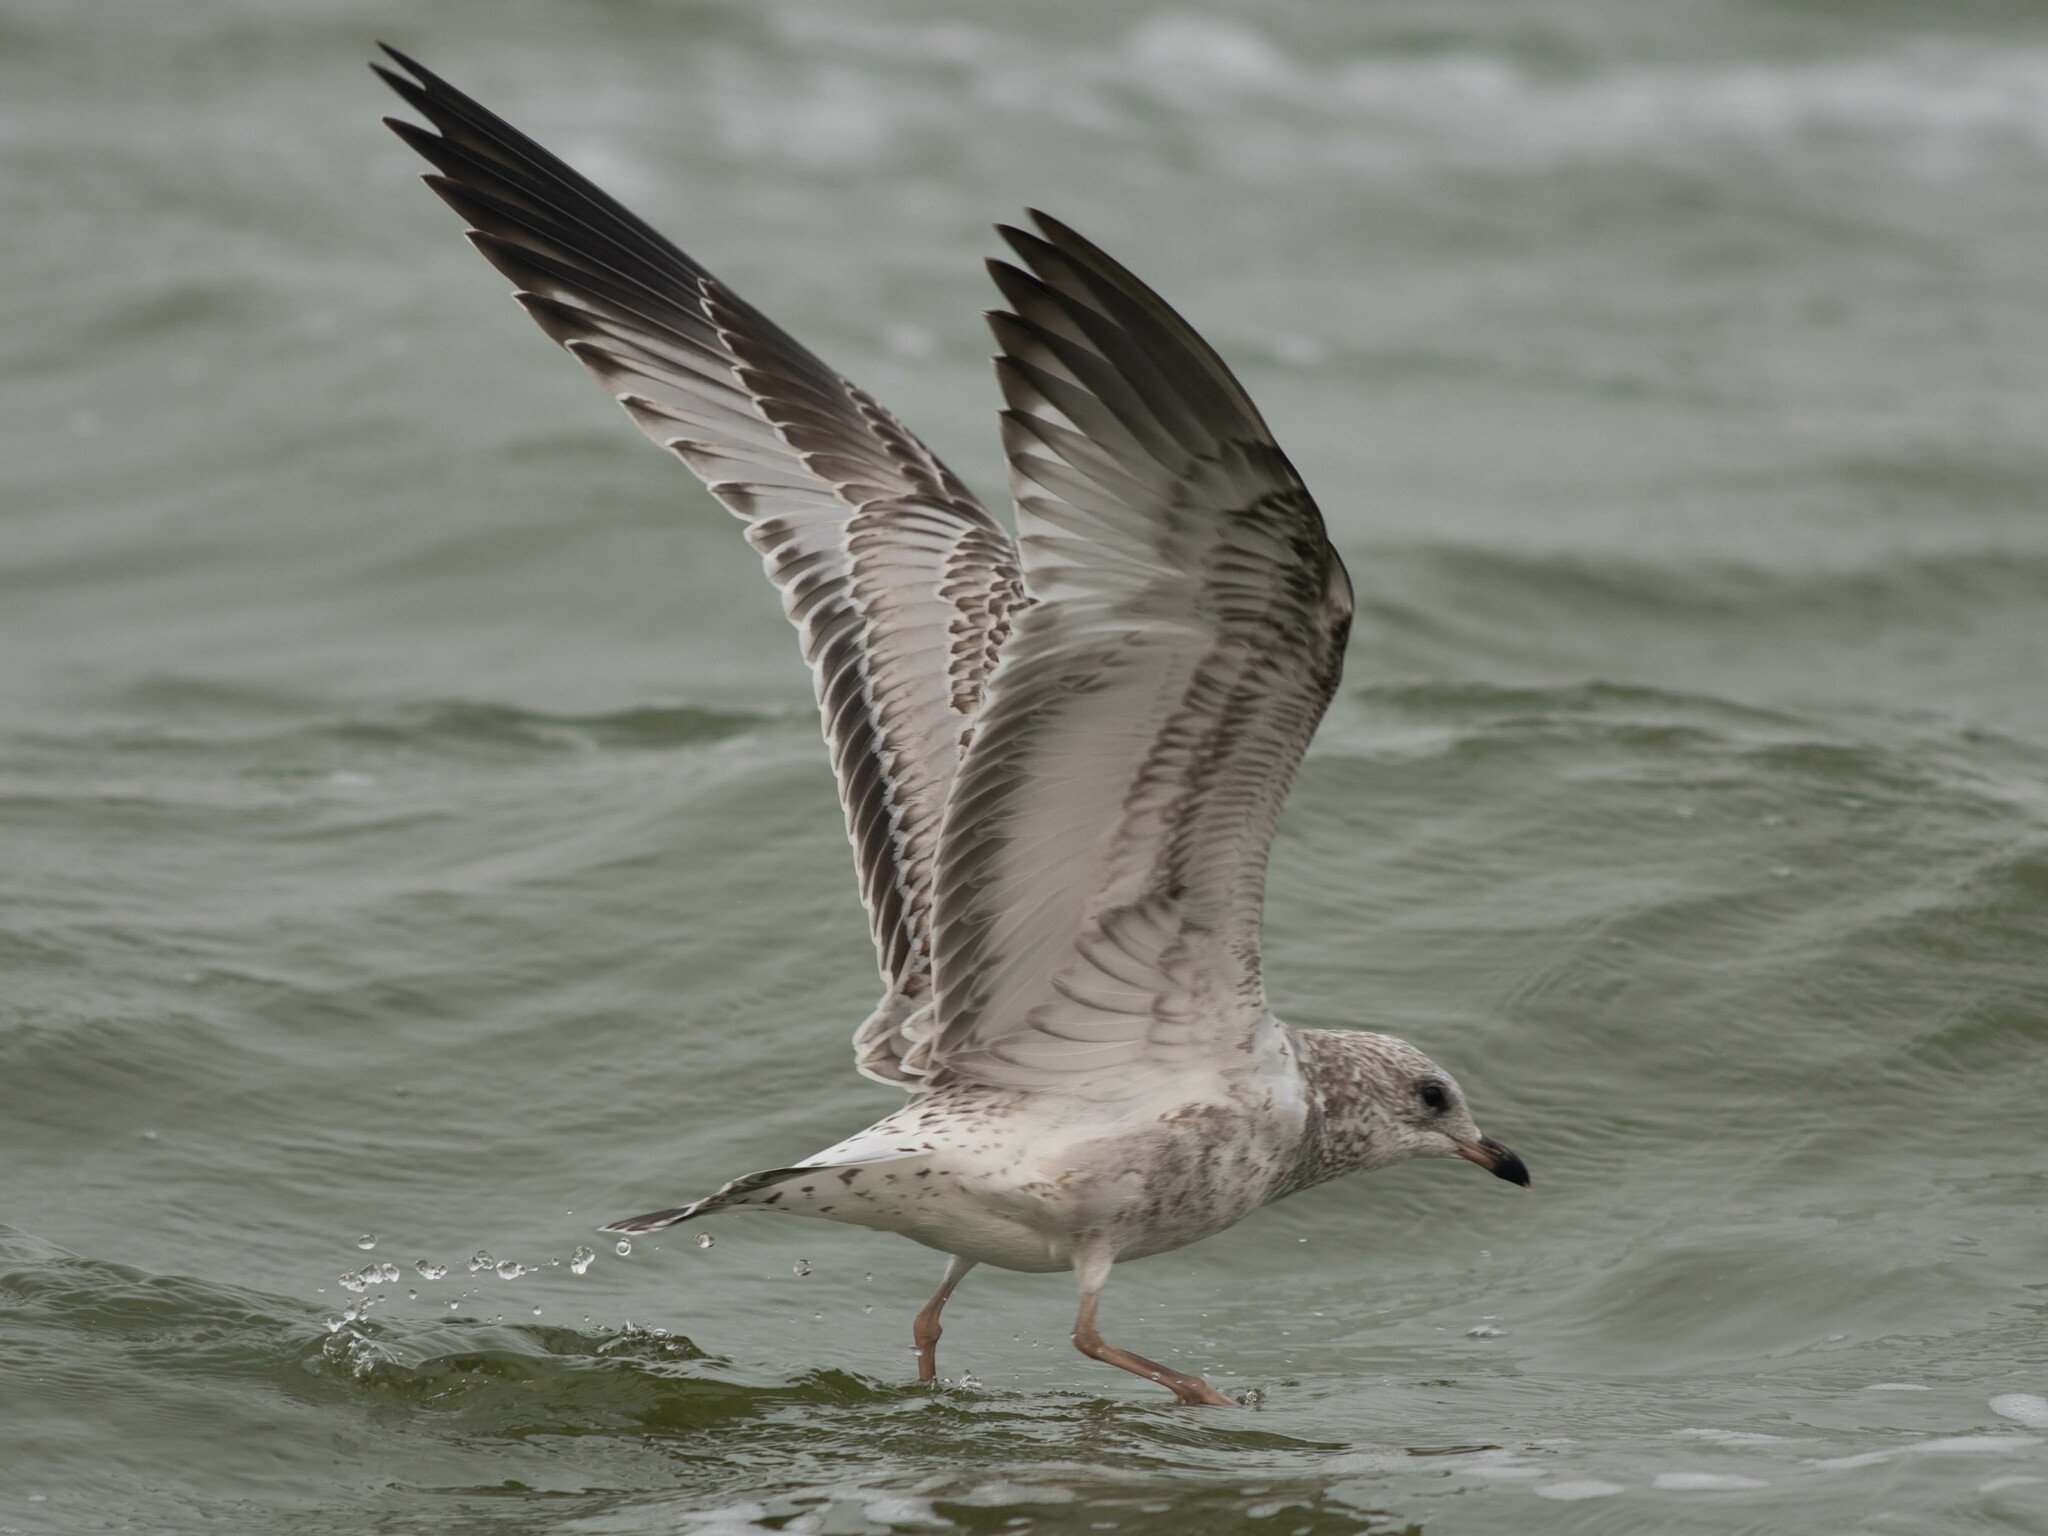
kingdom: Animalia
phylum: Chordata
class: Aves
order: Charadriiformes
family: Laridae
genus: Larus
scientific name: Larus delawarensis
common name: Ring-billed gull
